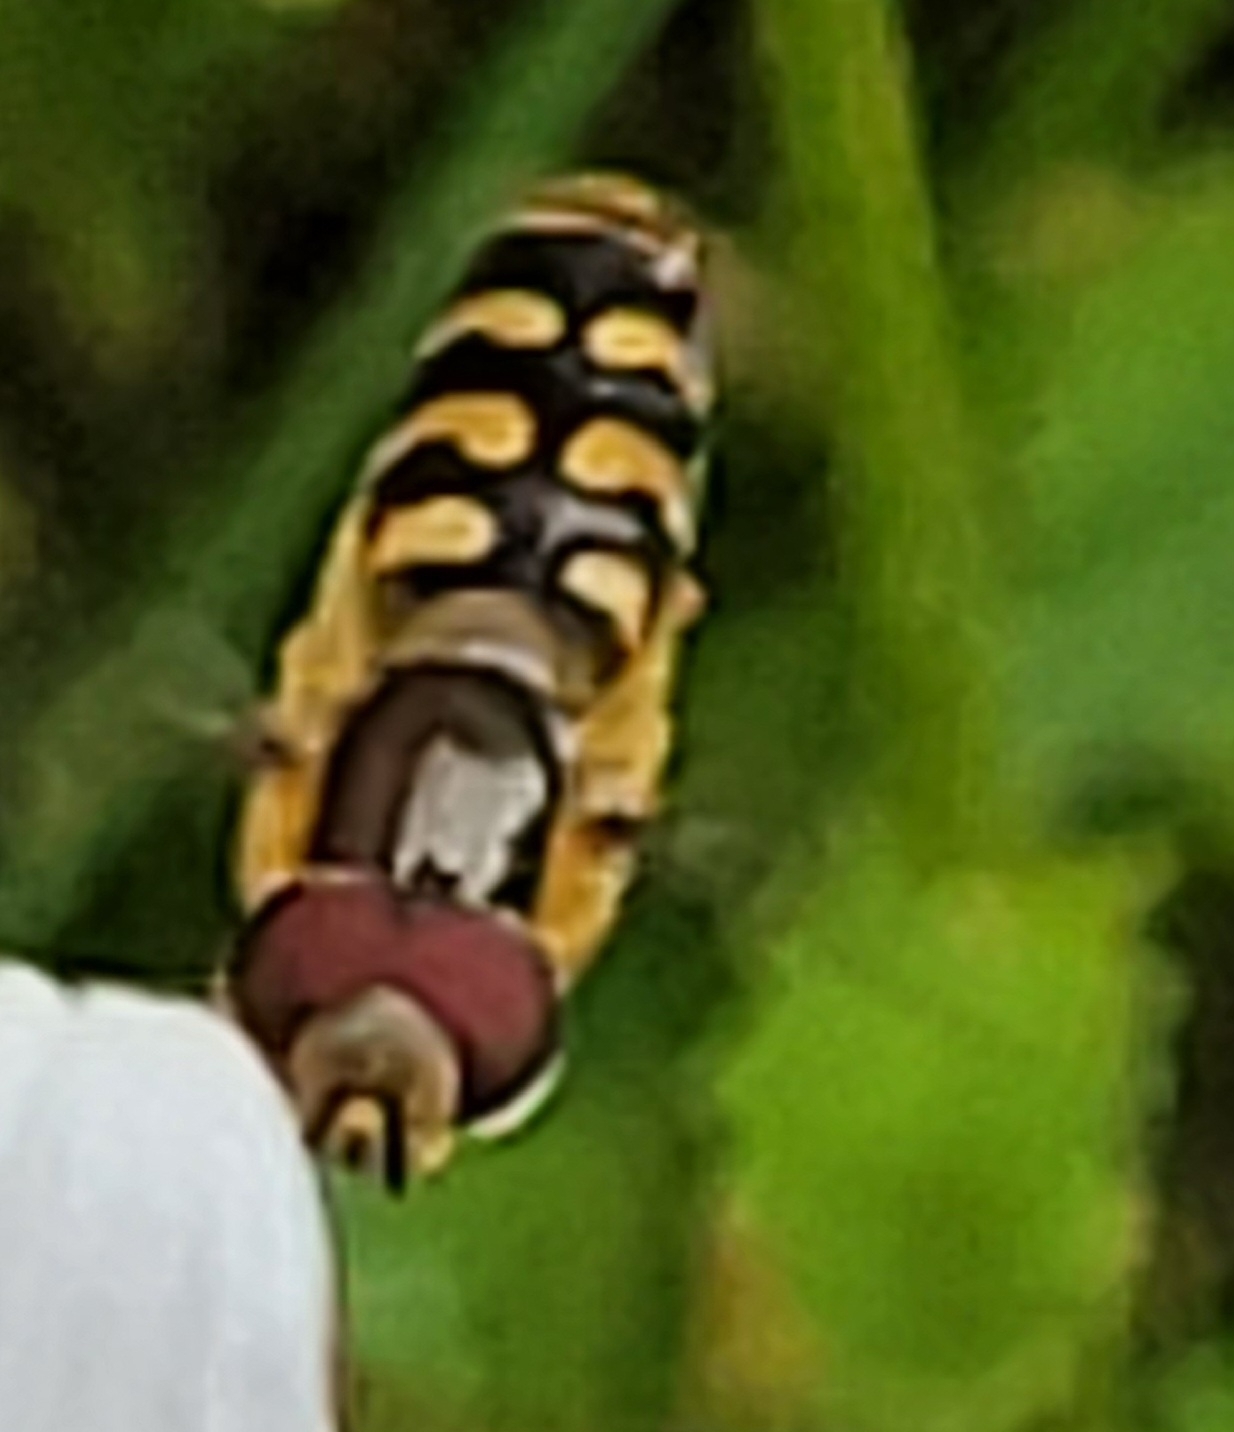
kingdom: Animalia
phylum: Arthropoda
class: Insecta
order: Diptera
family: Syrphidae
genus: Scaeva
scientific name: Scaeva selenitica
